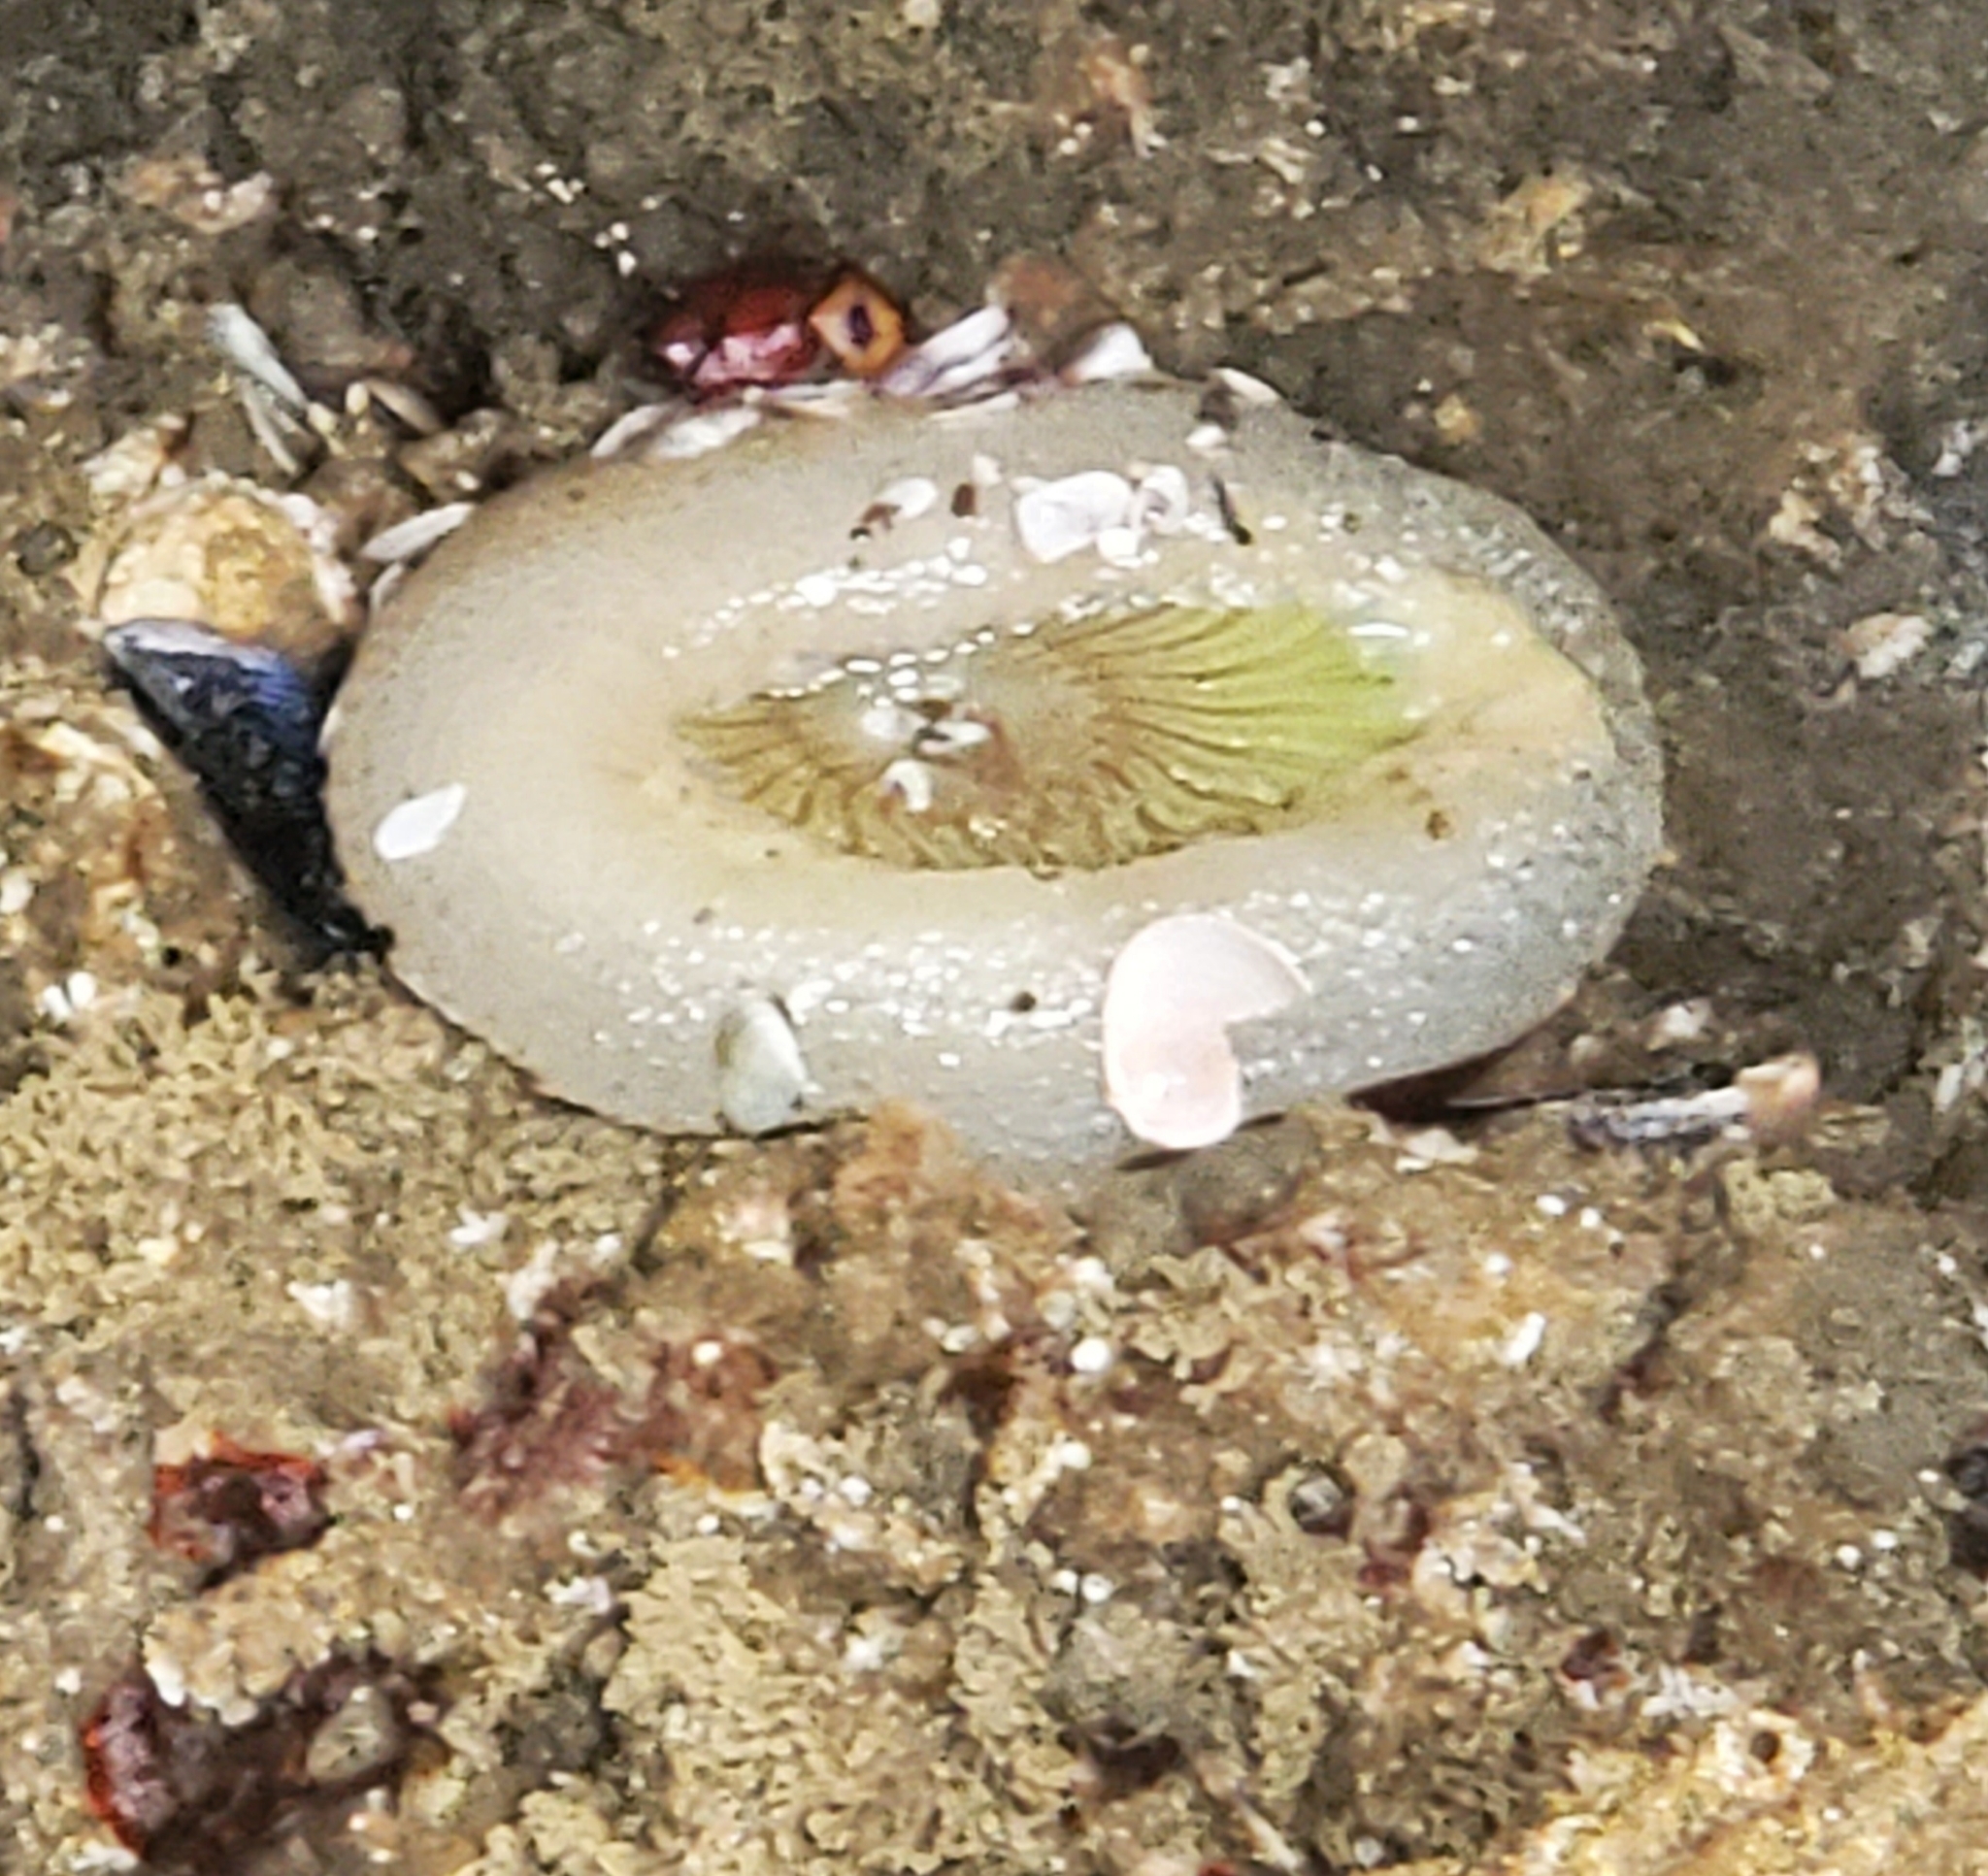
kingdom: Animalia
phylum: Cnidaria
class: Anthozoa
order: Actiniaria
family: Actiniidae
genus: Anthopleura
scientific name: Anthopleura sola
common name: Sun anemone
